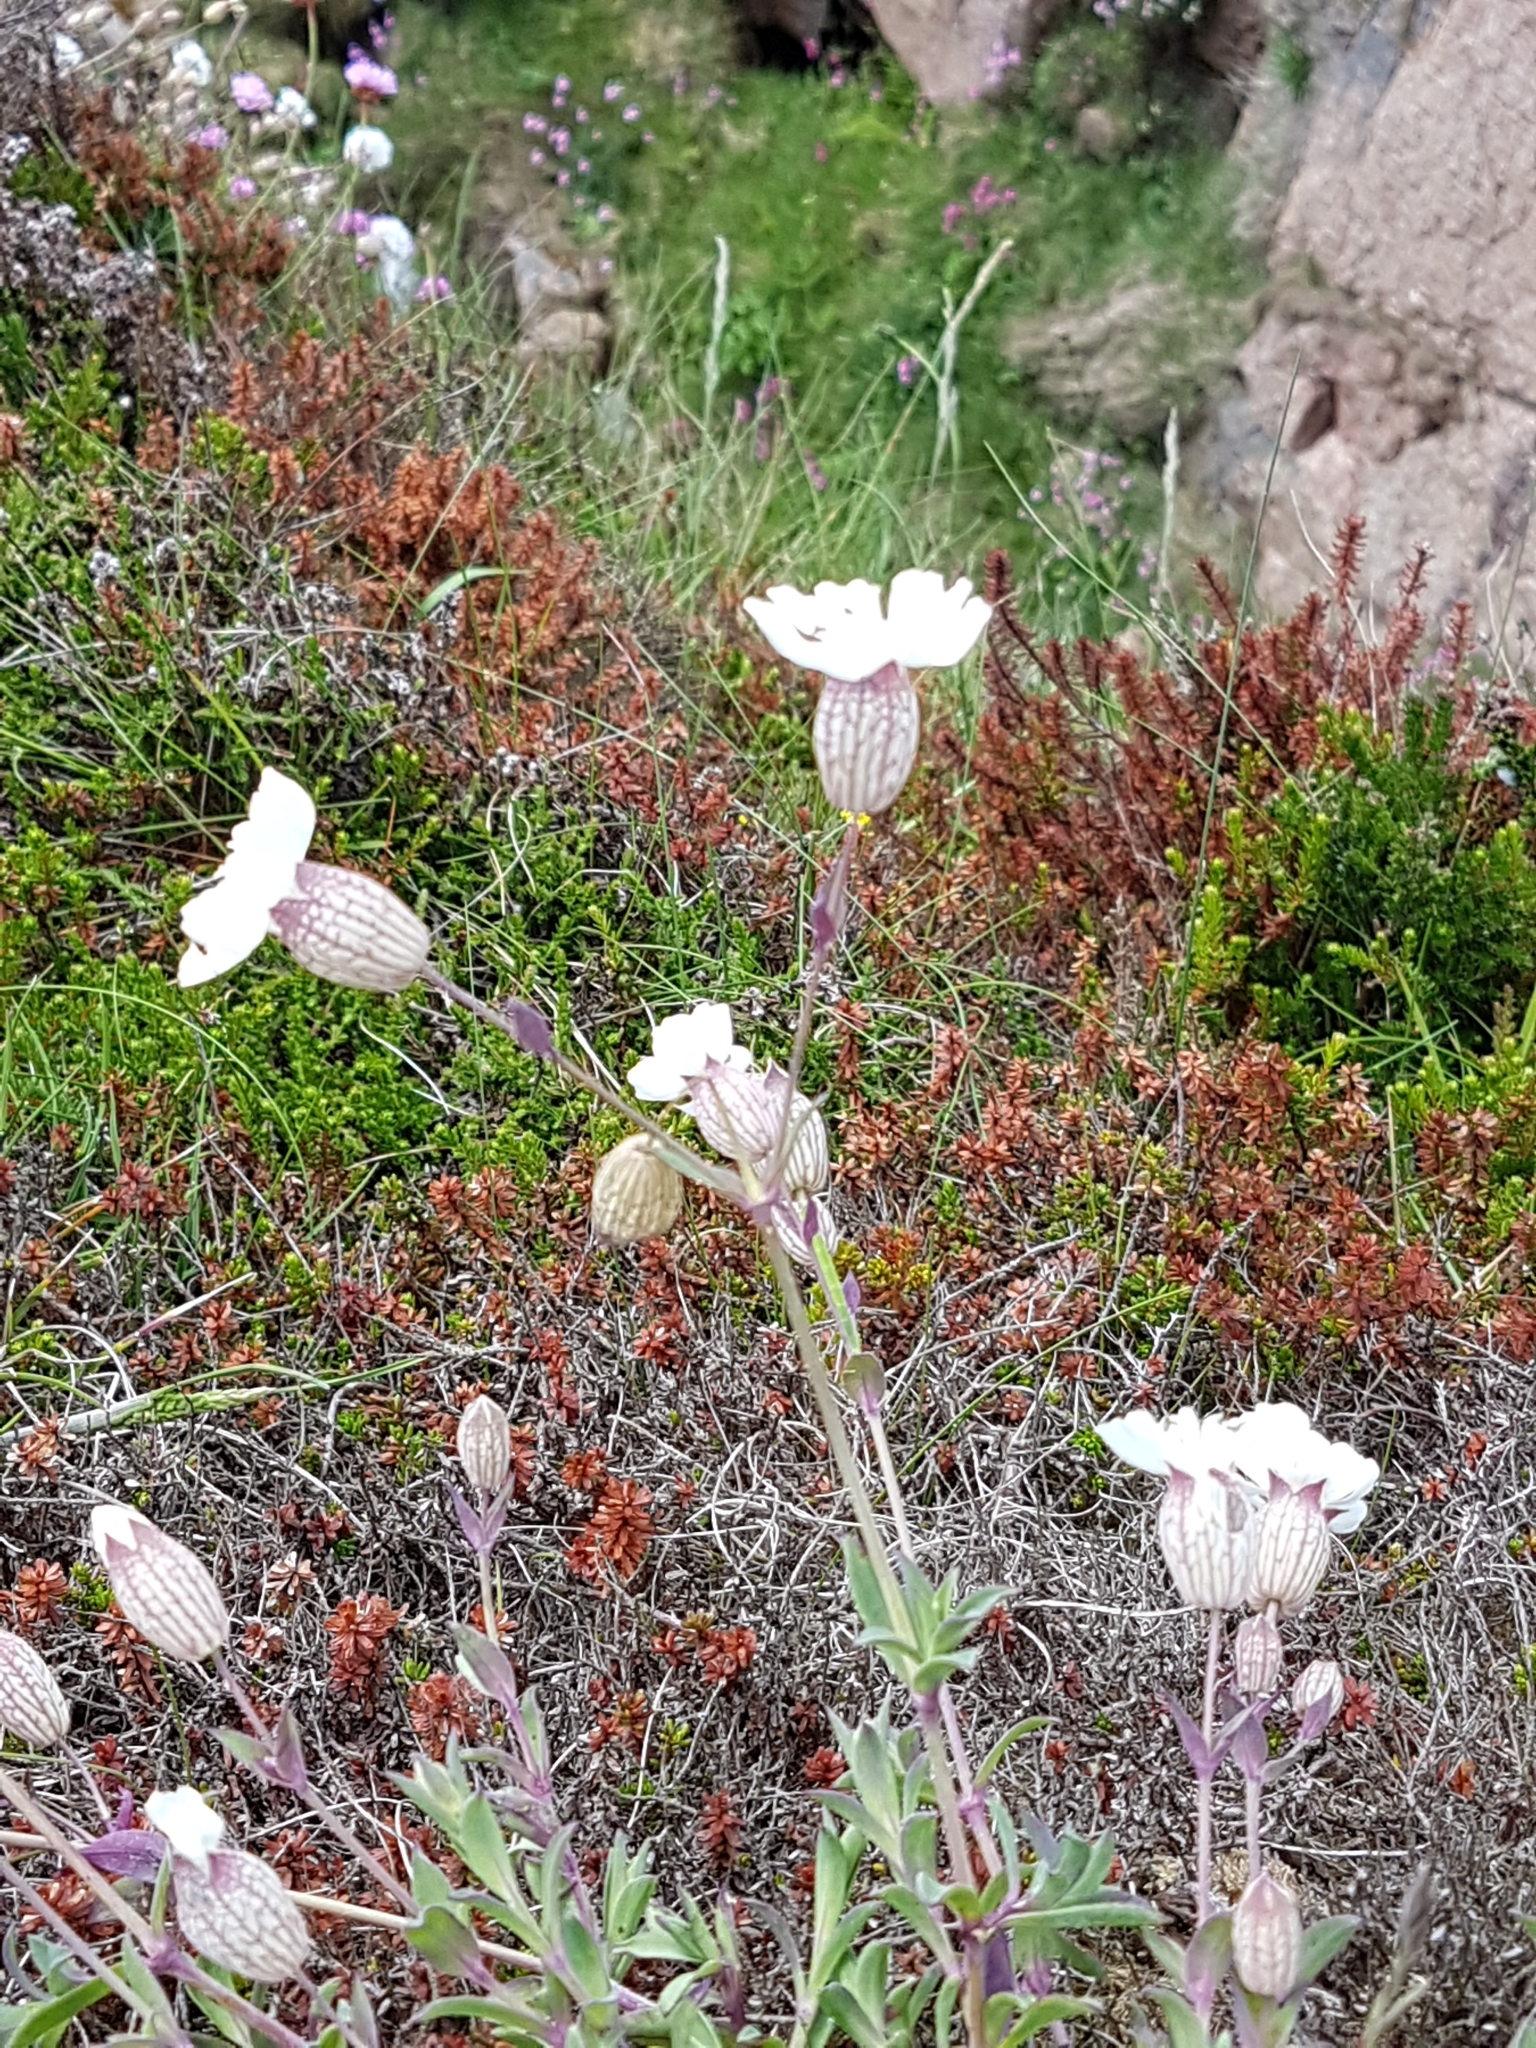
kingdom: Plantae
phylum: Tracheophyta
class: Magnoliopsida
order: Caryophyllales
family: Caryophyllaceae
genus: Silene
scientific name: Silene uniflora
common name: Sea campion
